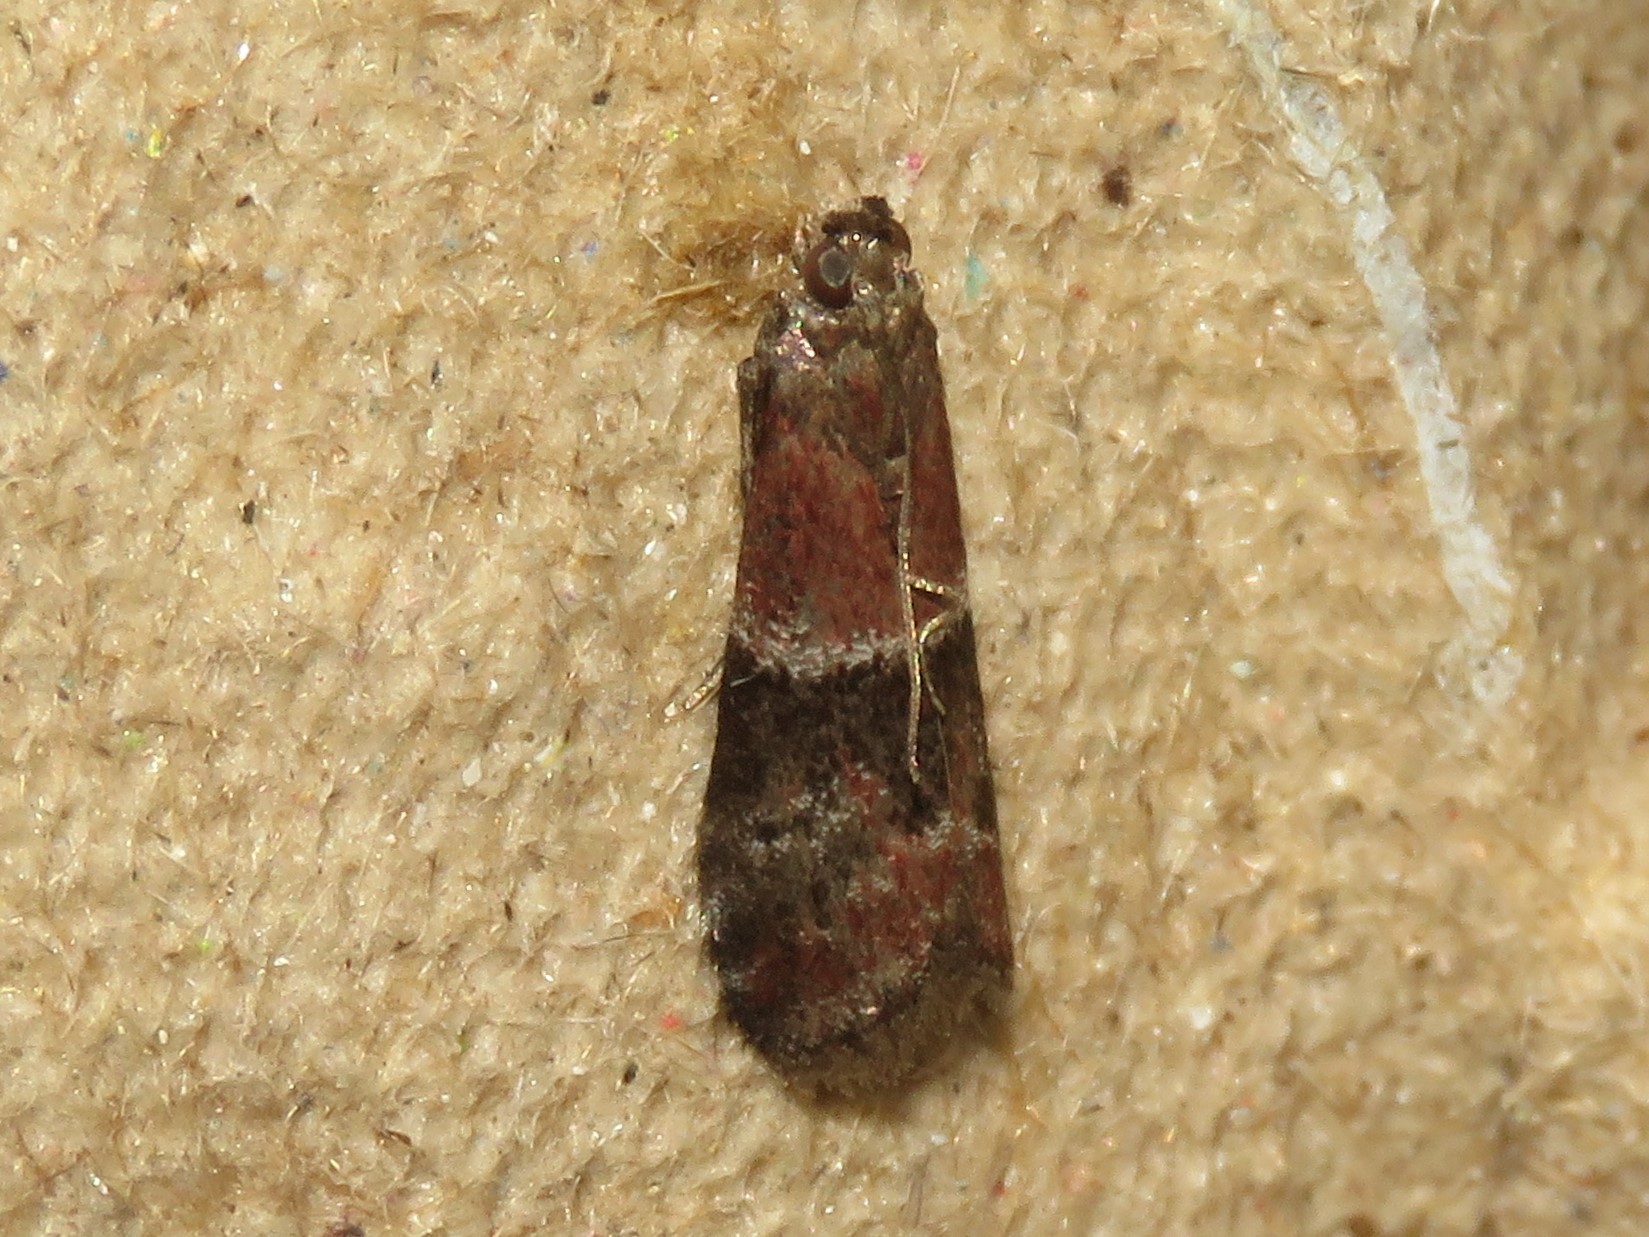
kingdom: Animalia
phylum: Arthropoda
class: Insecta
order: Lepidoptera
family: Pyralidae
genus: Moodna
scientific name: Moodna ostrinella
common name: Darker moodna moth
